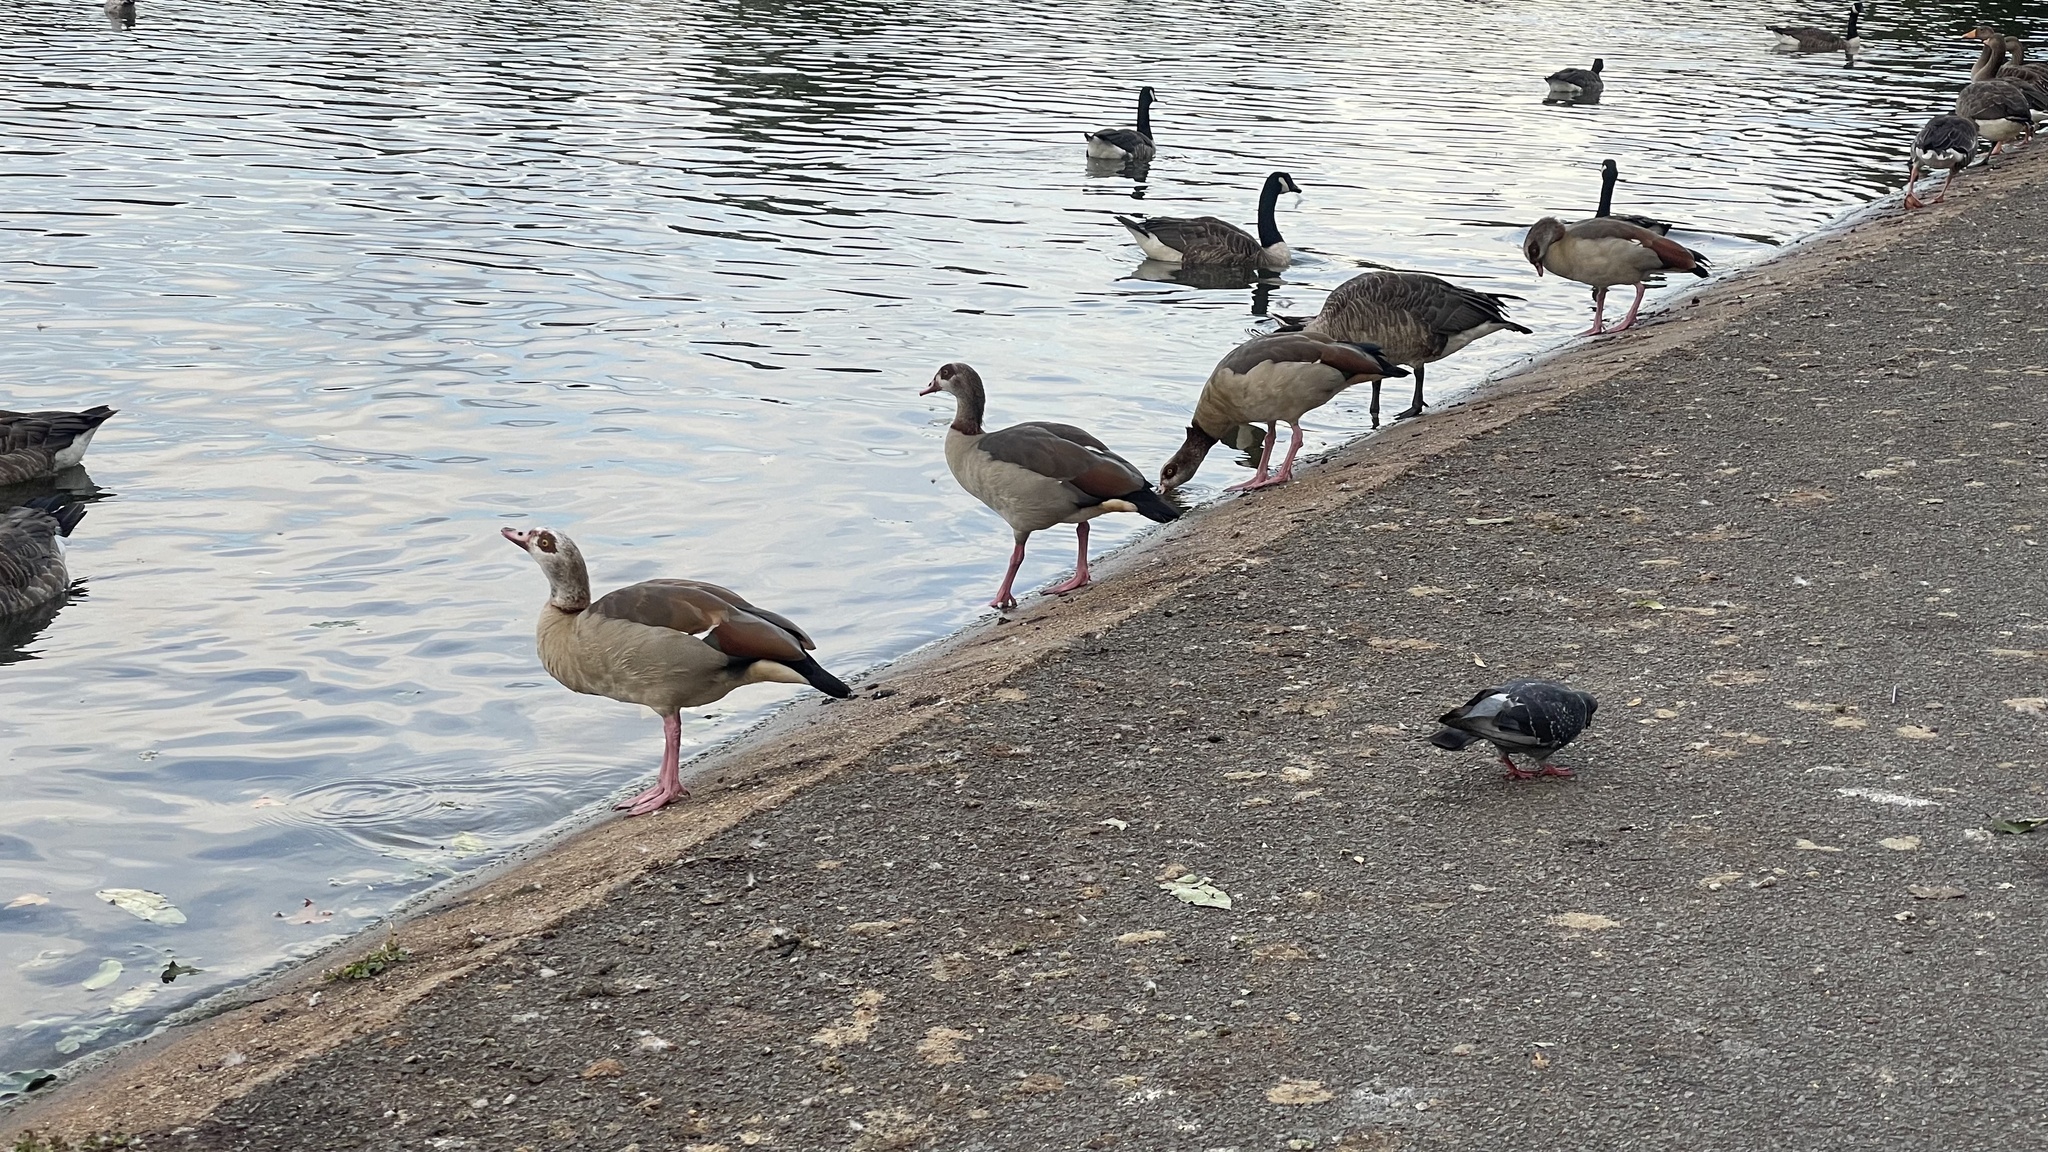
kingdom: Animalia
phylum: Chordata
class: Aves
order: Anseriformes
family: Anatidae
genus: Alopochen
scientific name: Alopochen aegyptiaca
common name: Egyptian goose
